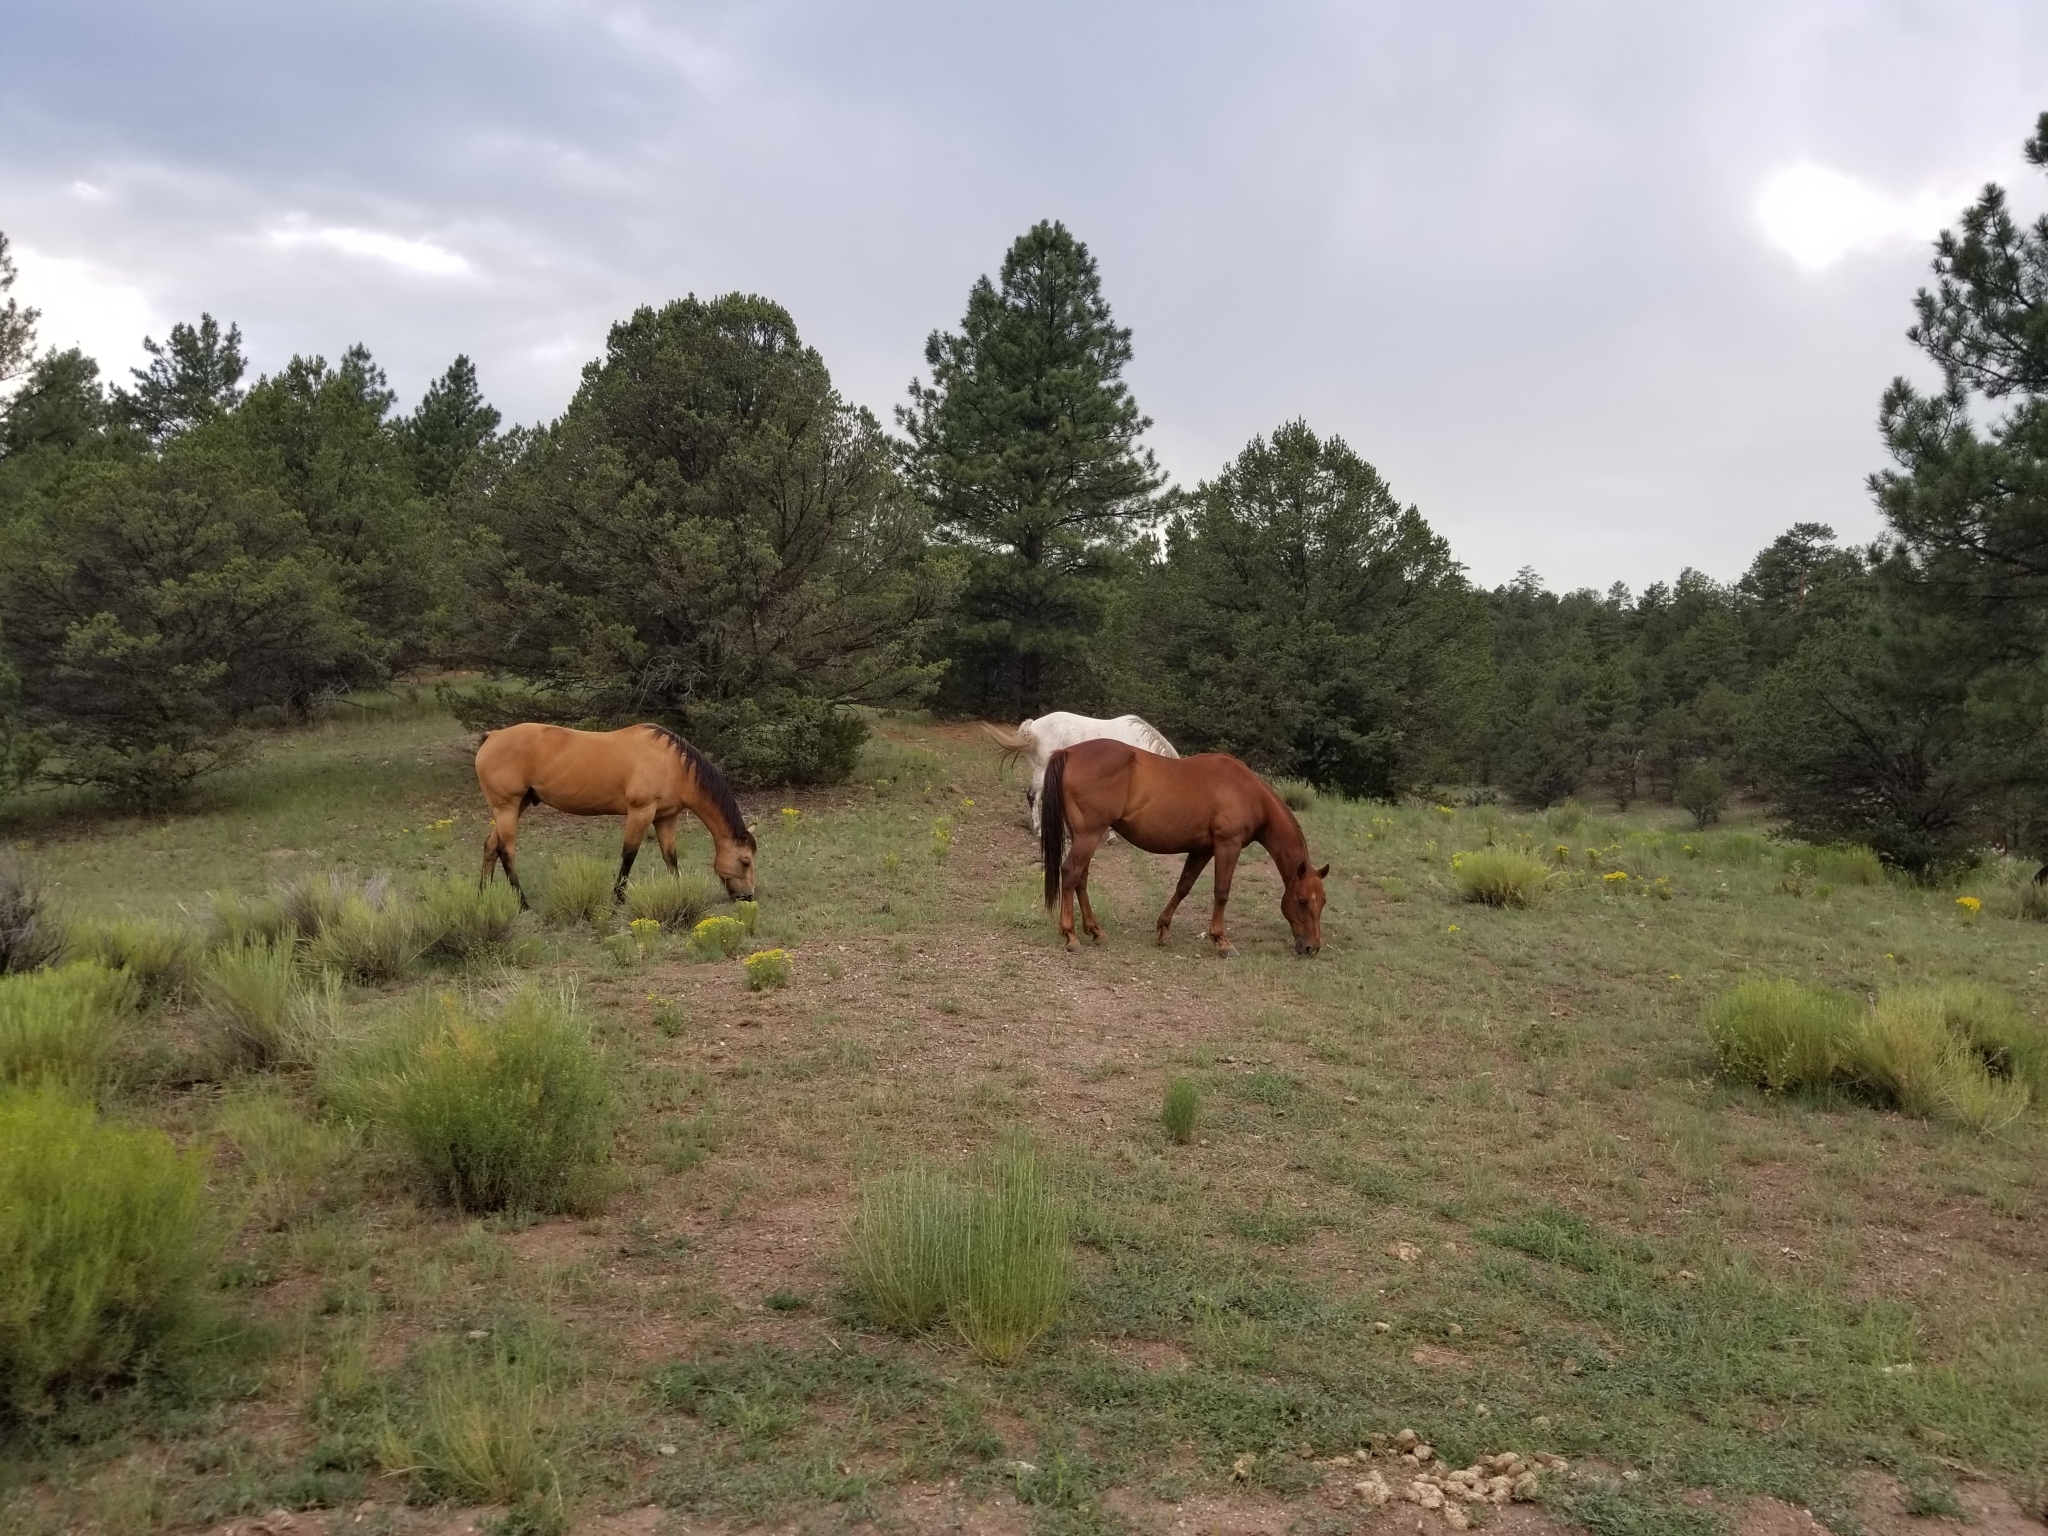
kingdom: Animalia
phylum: Chordata
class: Mammalia
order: Perissodactyla
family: Equidae
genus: Equus
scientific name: Equus caballus
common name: Horse
